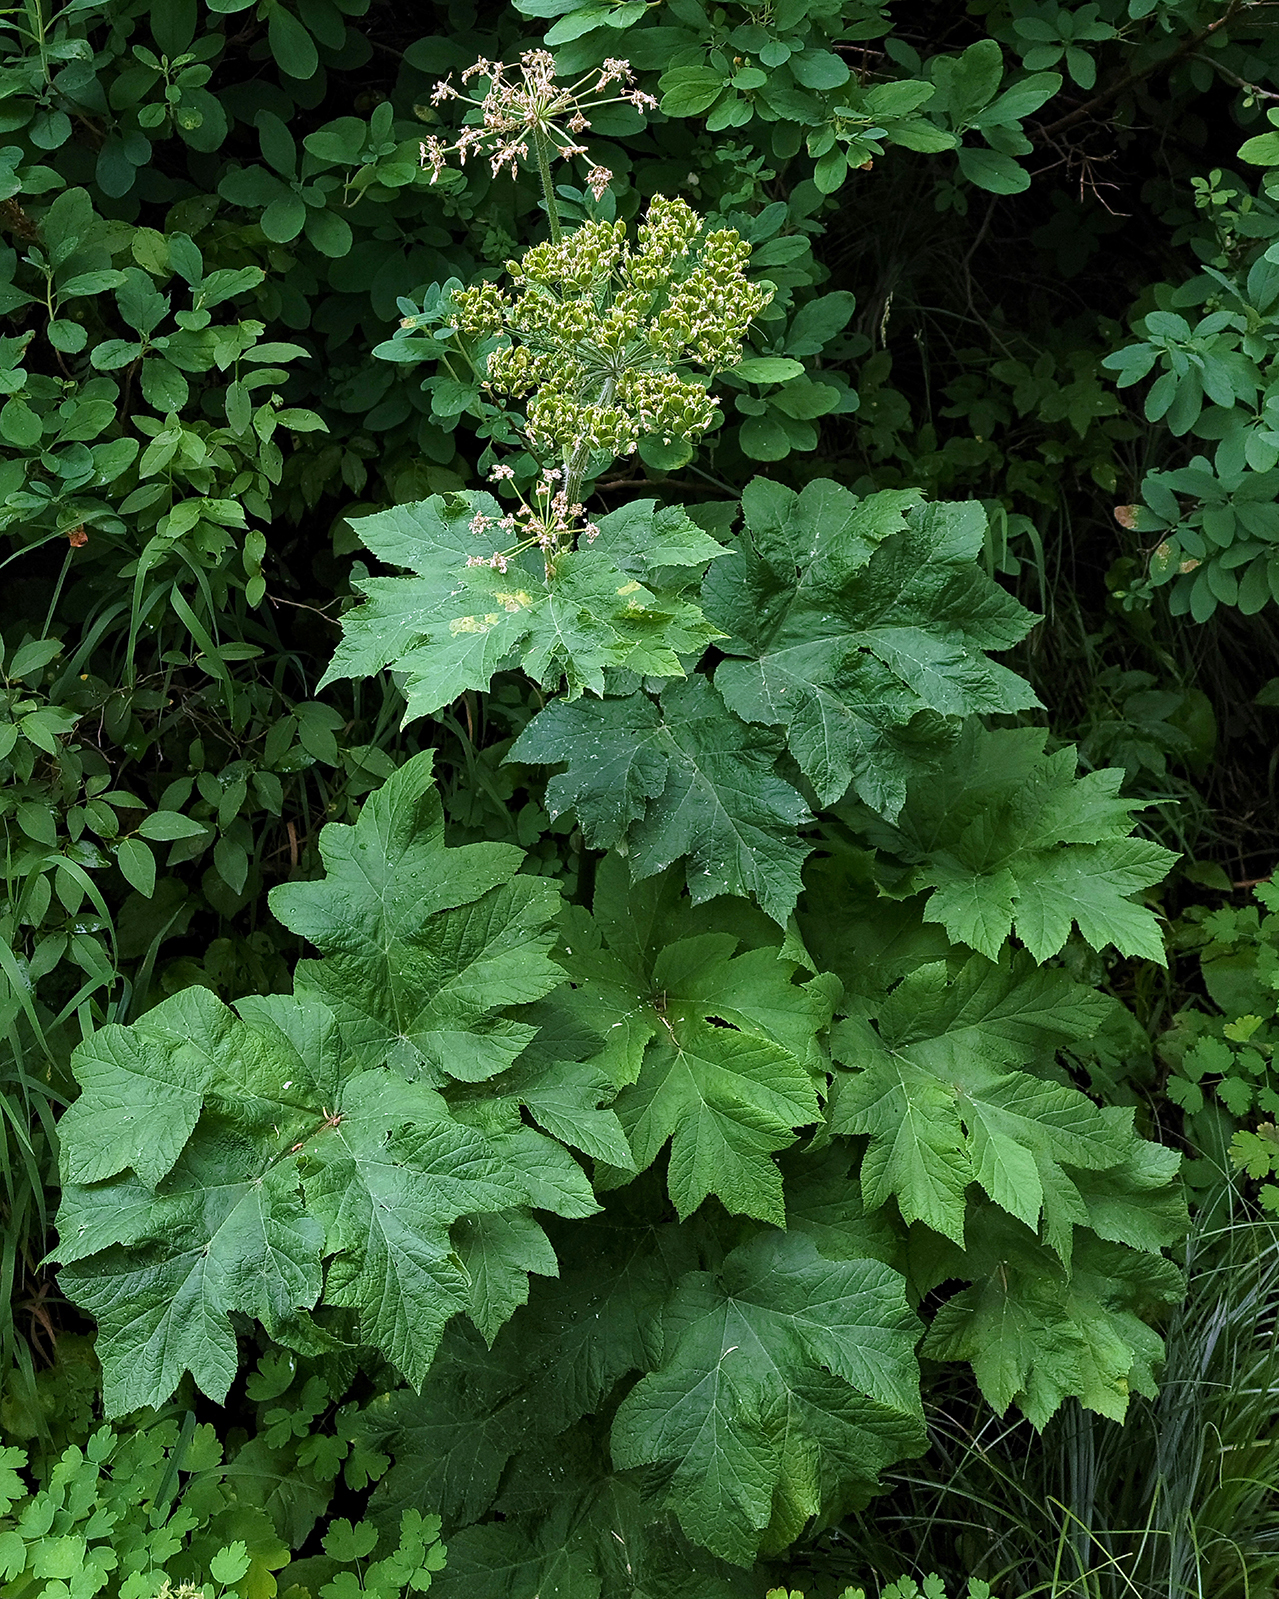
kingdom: Plantae
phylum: Tracheophyta
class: Magnoliopsida
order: Apiales
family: Apiaceae
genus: Heracleum
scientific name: Heracleum maximum
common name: American cow parsnip
